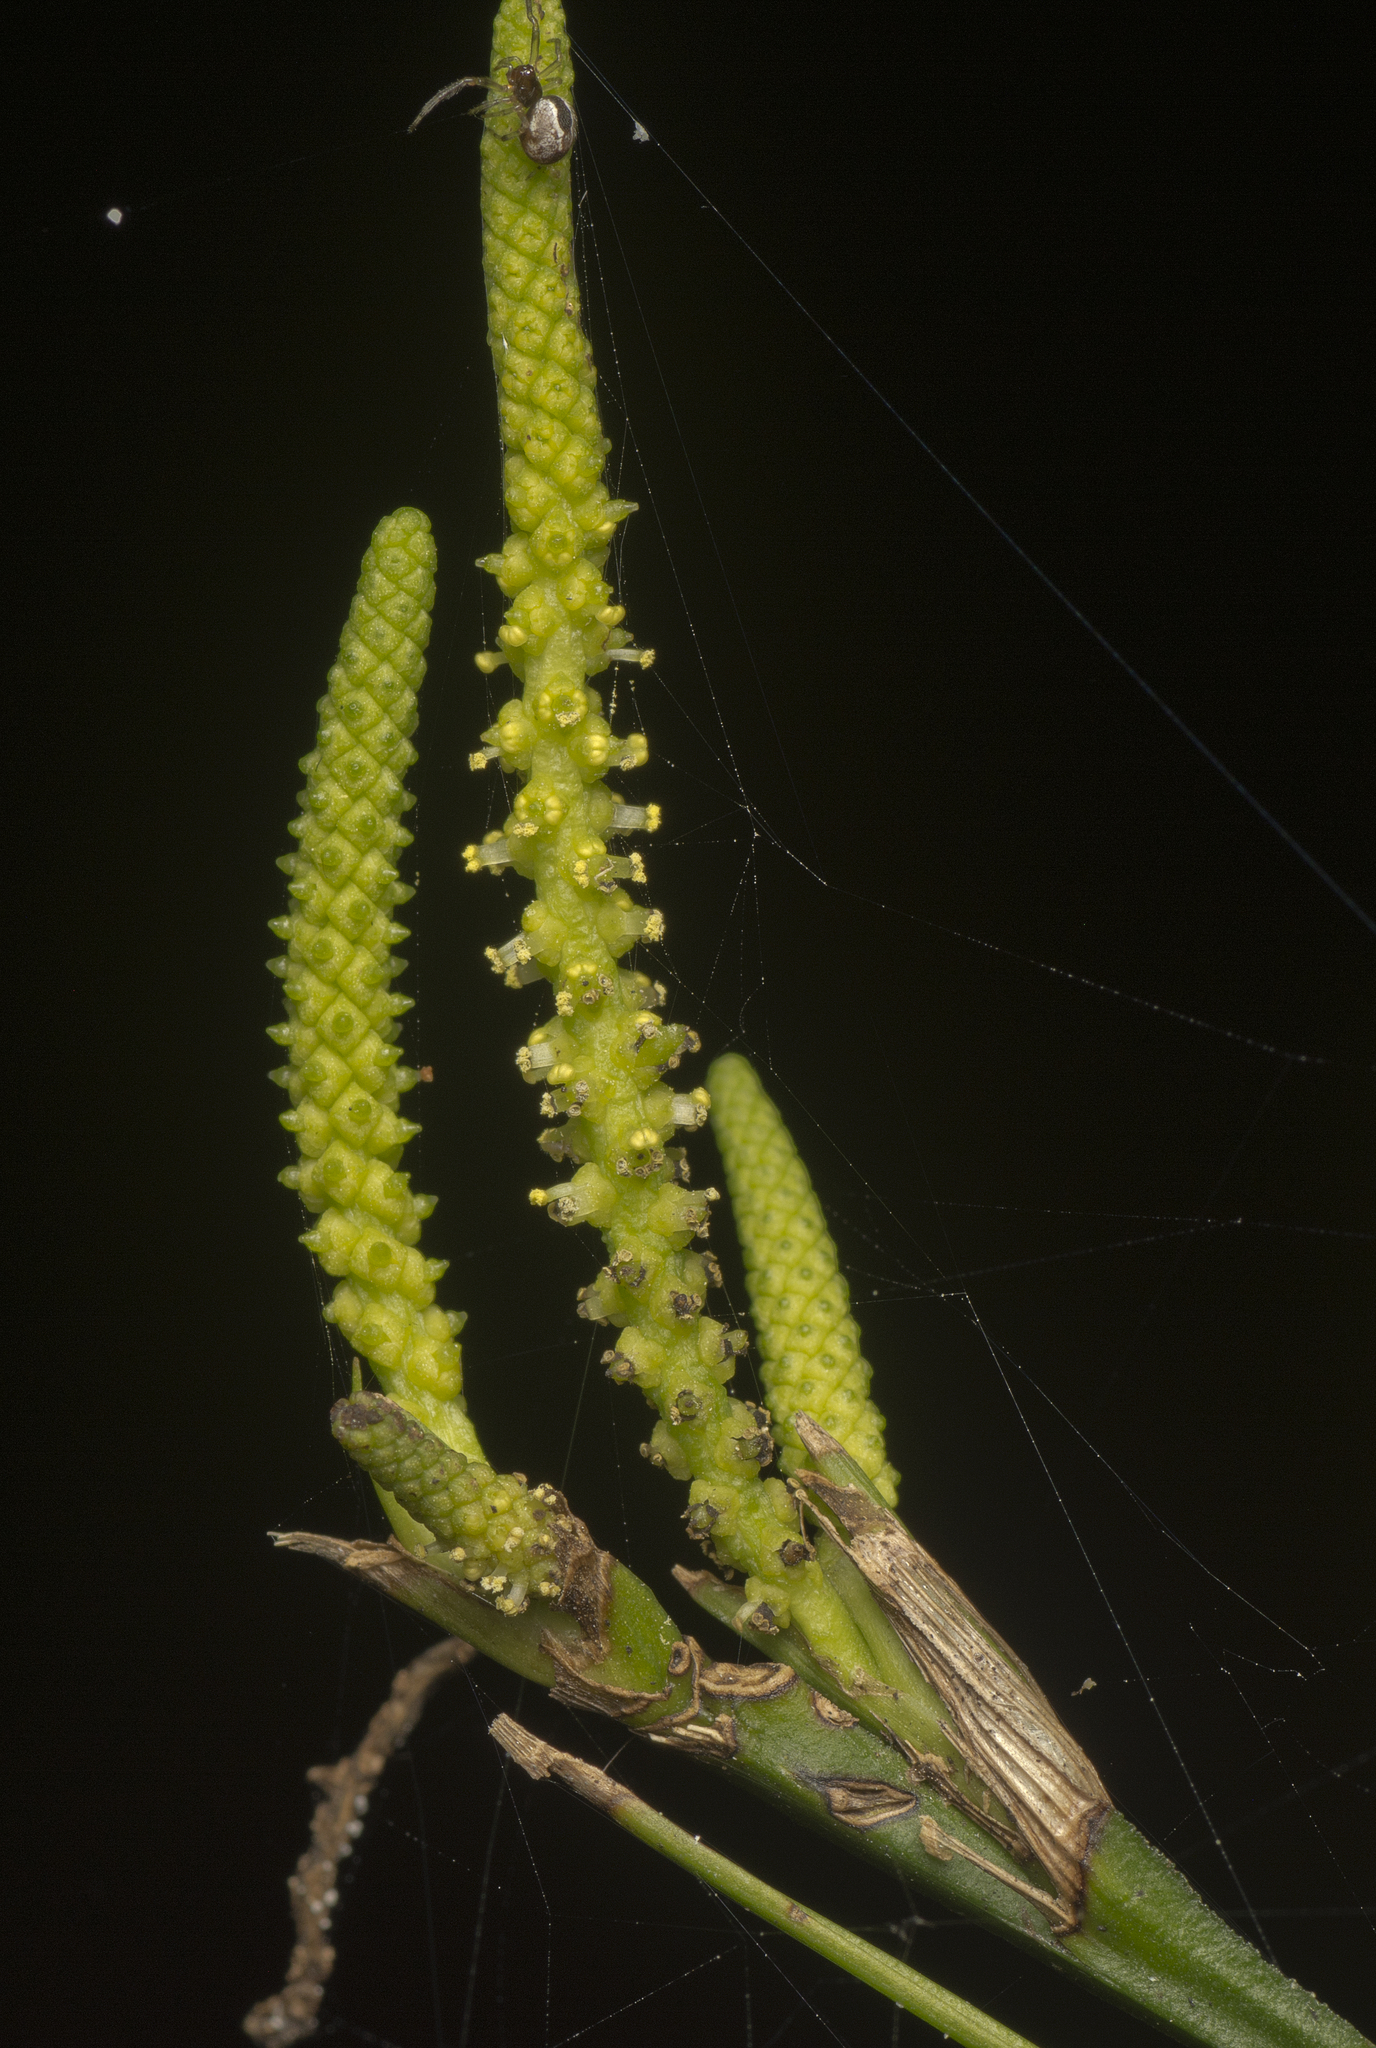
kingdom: Plantae
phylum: Tracheophyta
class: Liliopsida
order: Alismatales
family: Araceae
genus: Gymnostachys
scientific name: Gymnostachys anceps
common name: Settler's-flax
